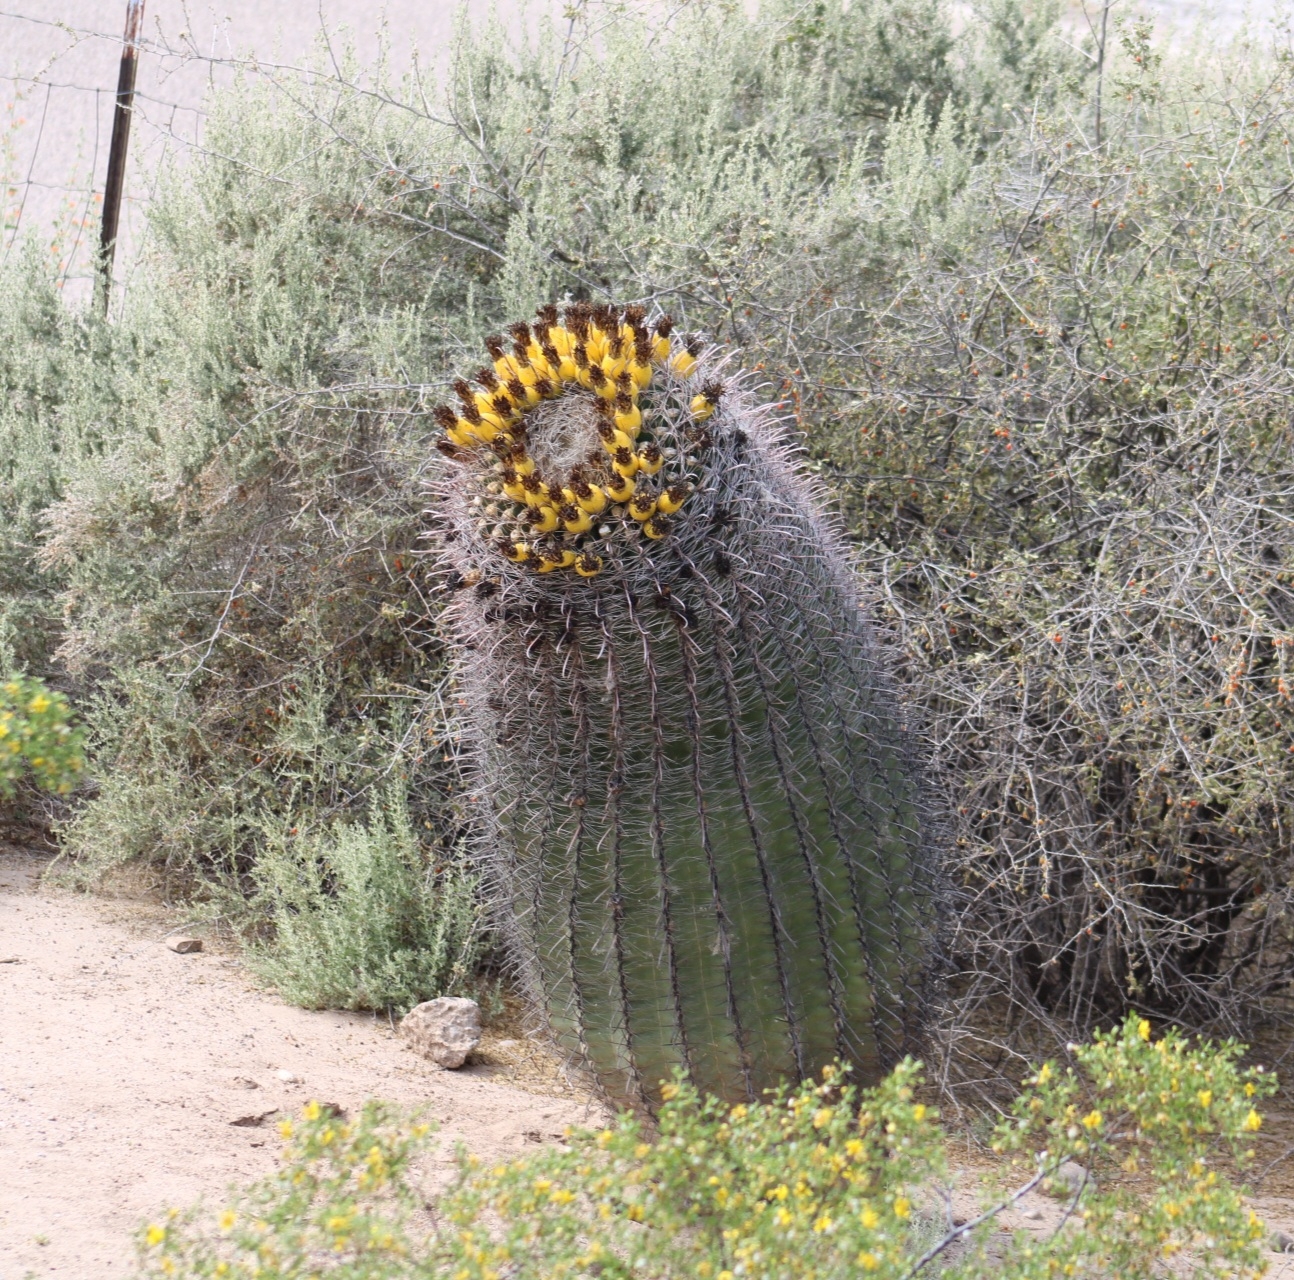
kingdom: Plantae
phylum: Tracheophyta
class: Magnoliopsida
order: Caryophyllales
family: Cactaceae
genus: Ferocactus
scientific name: Ferocactus wislizeni
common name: Candy barrel cactus
